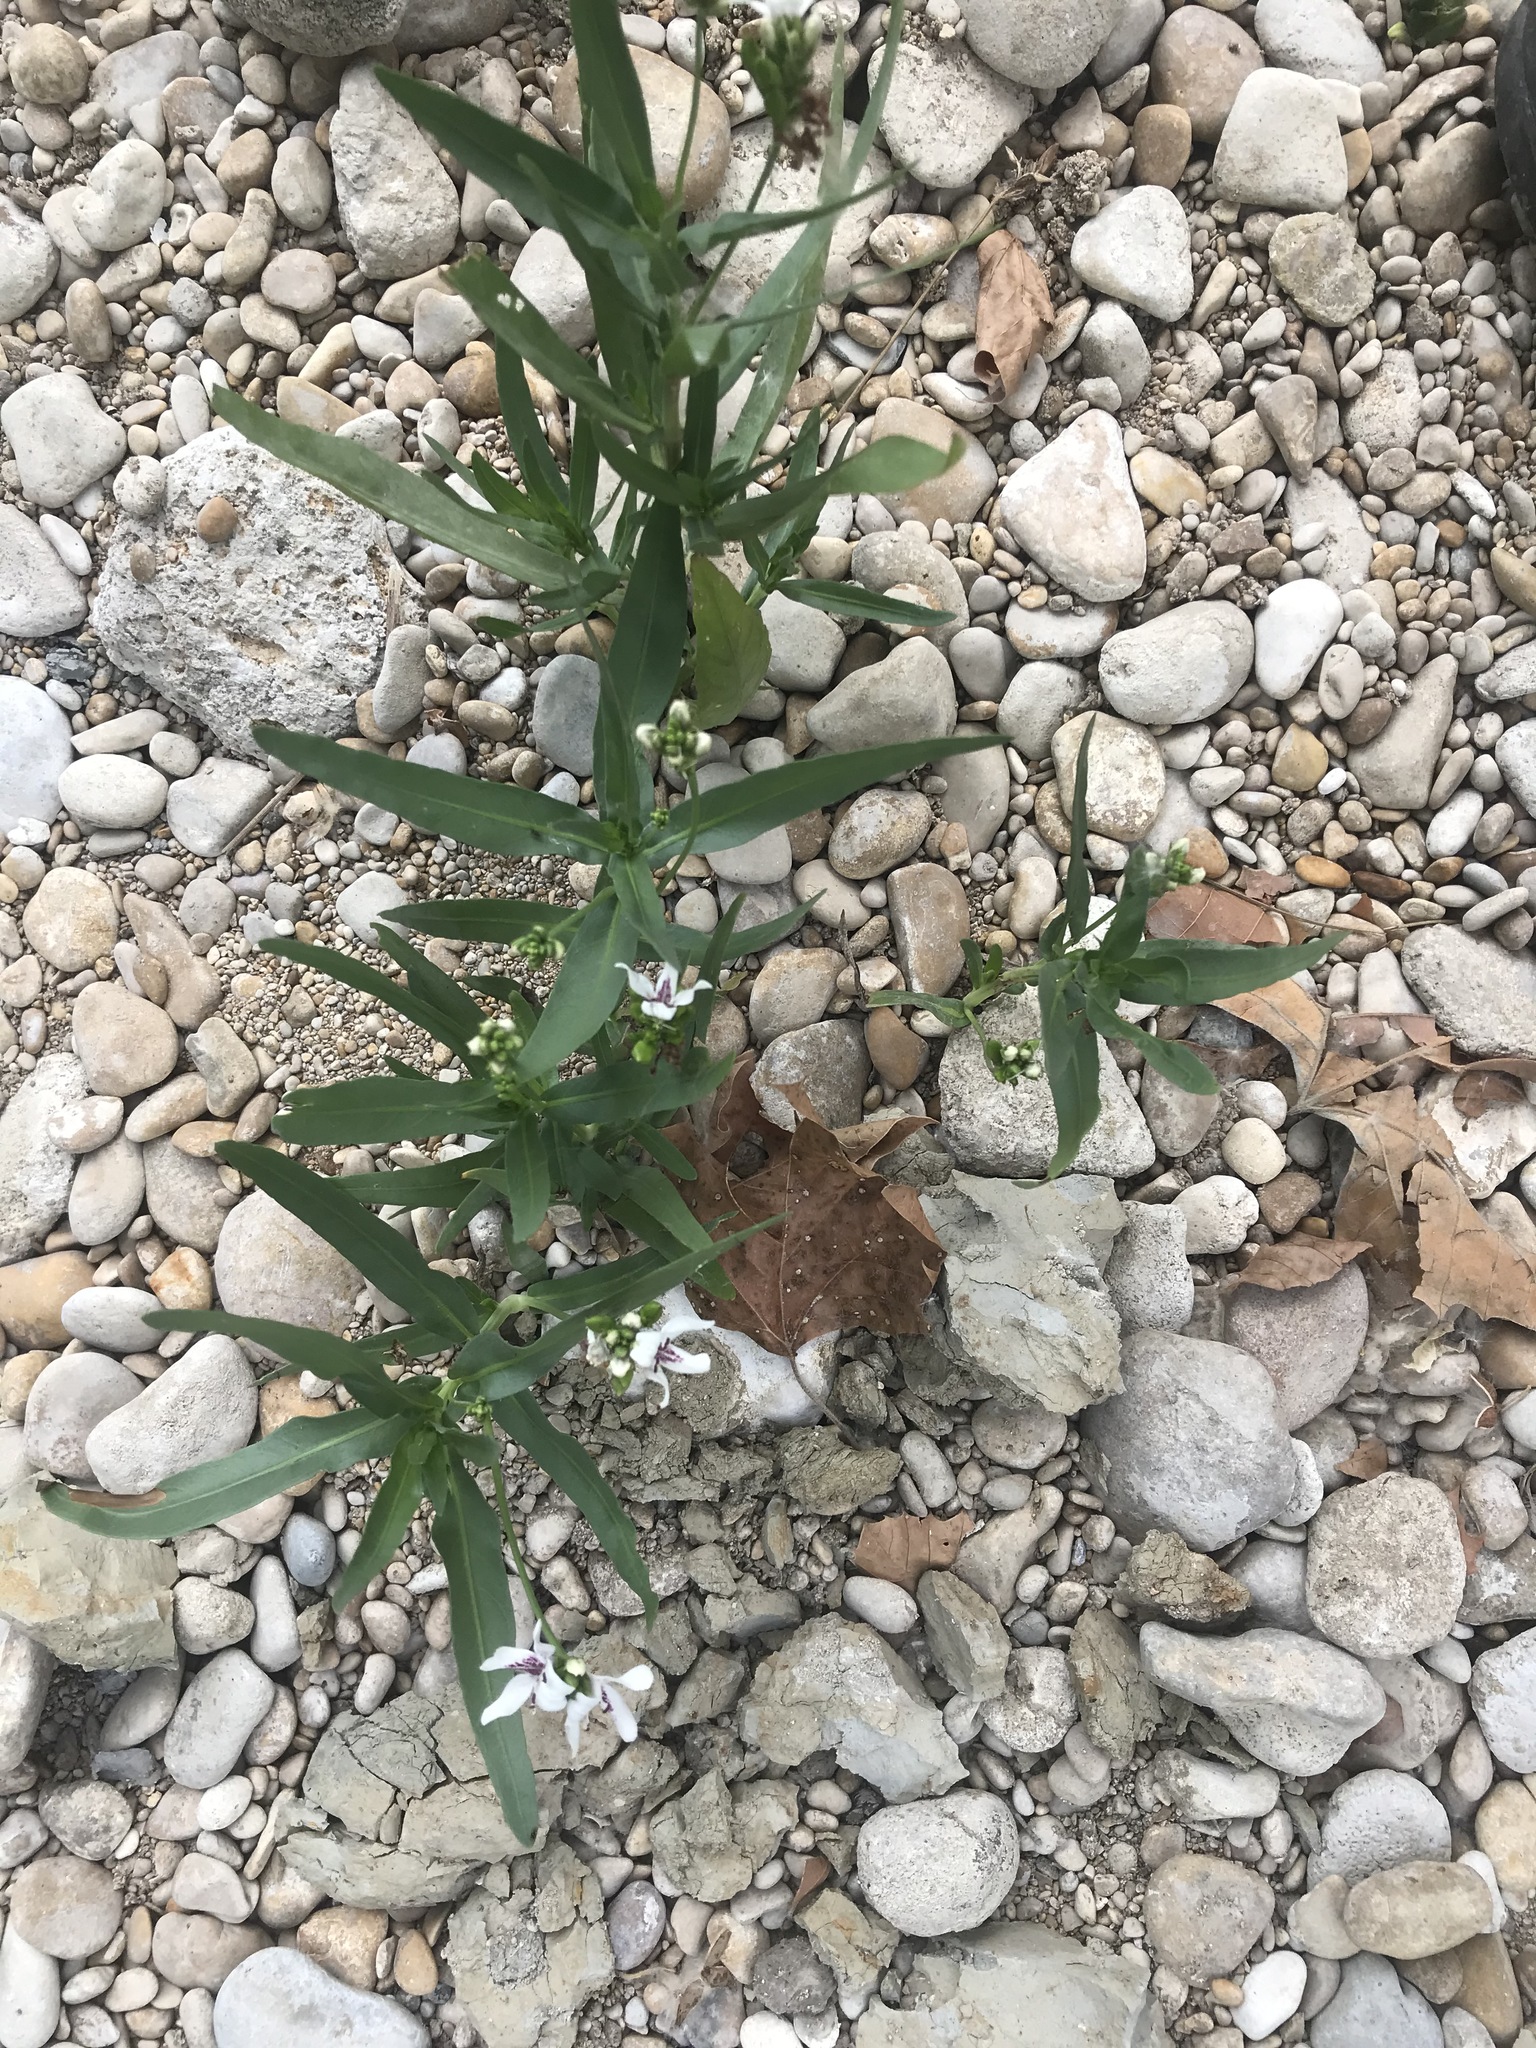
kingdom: Plantae
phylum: Tracheophyta
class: Magnoliopsida
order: Lamiales
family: Acanthaceae
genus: Dianthera
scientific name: Dianthera americana
